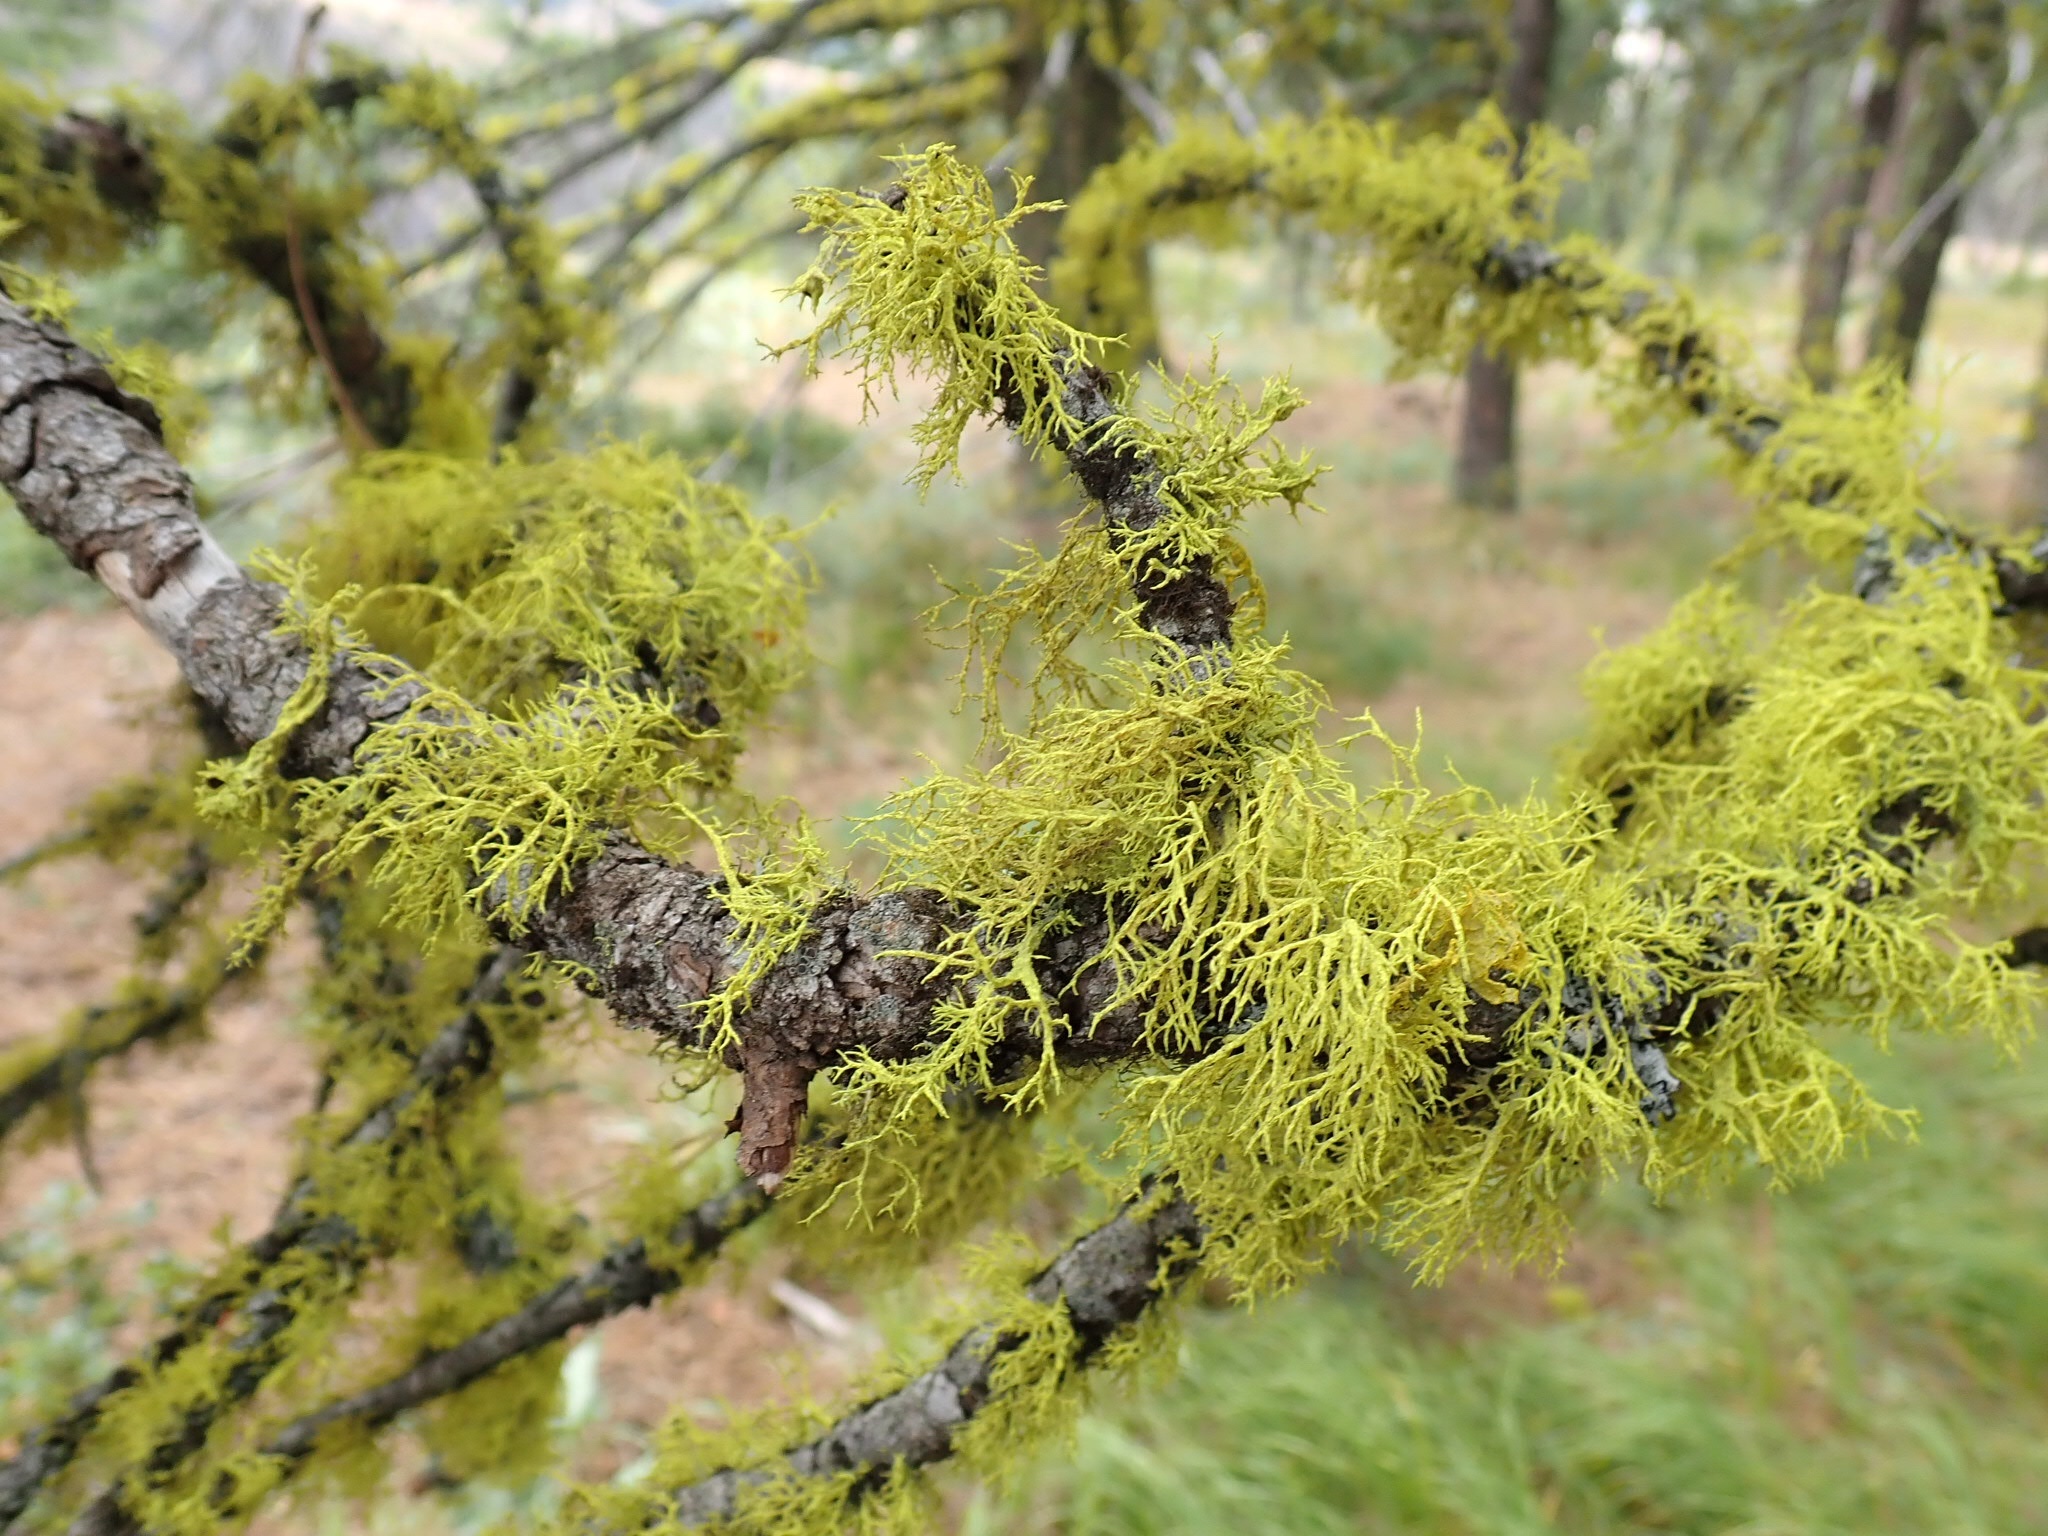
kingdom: Fungi
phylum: Ascomycota
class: Lecanoromycetes
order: Lecanorales
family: Parmeliaceae
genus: Letharia
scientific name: Letharia vulpina
